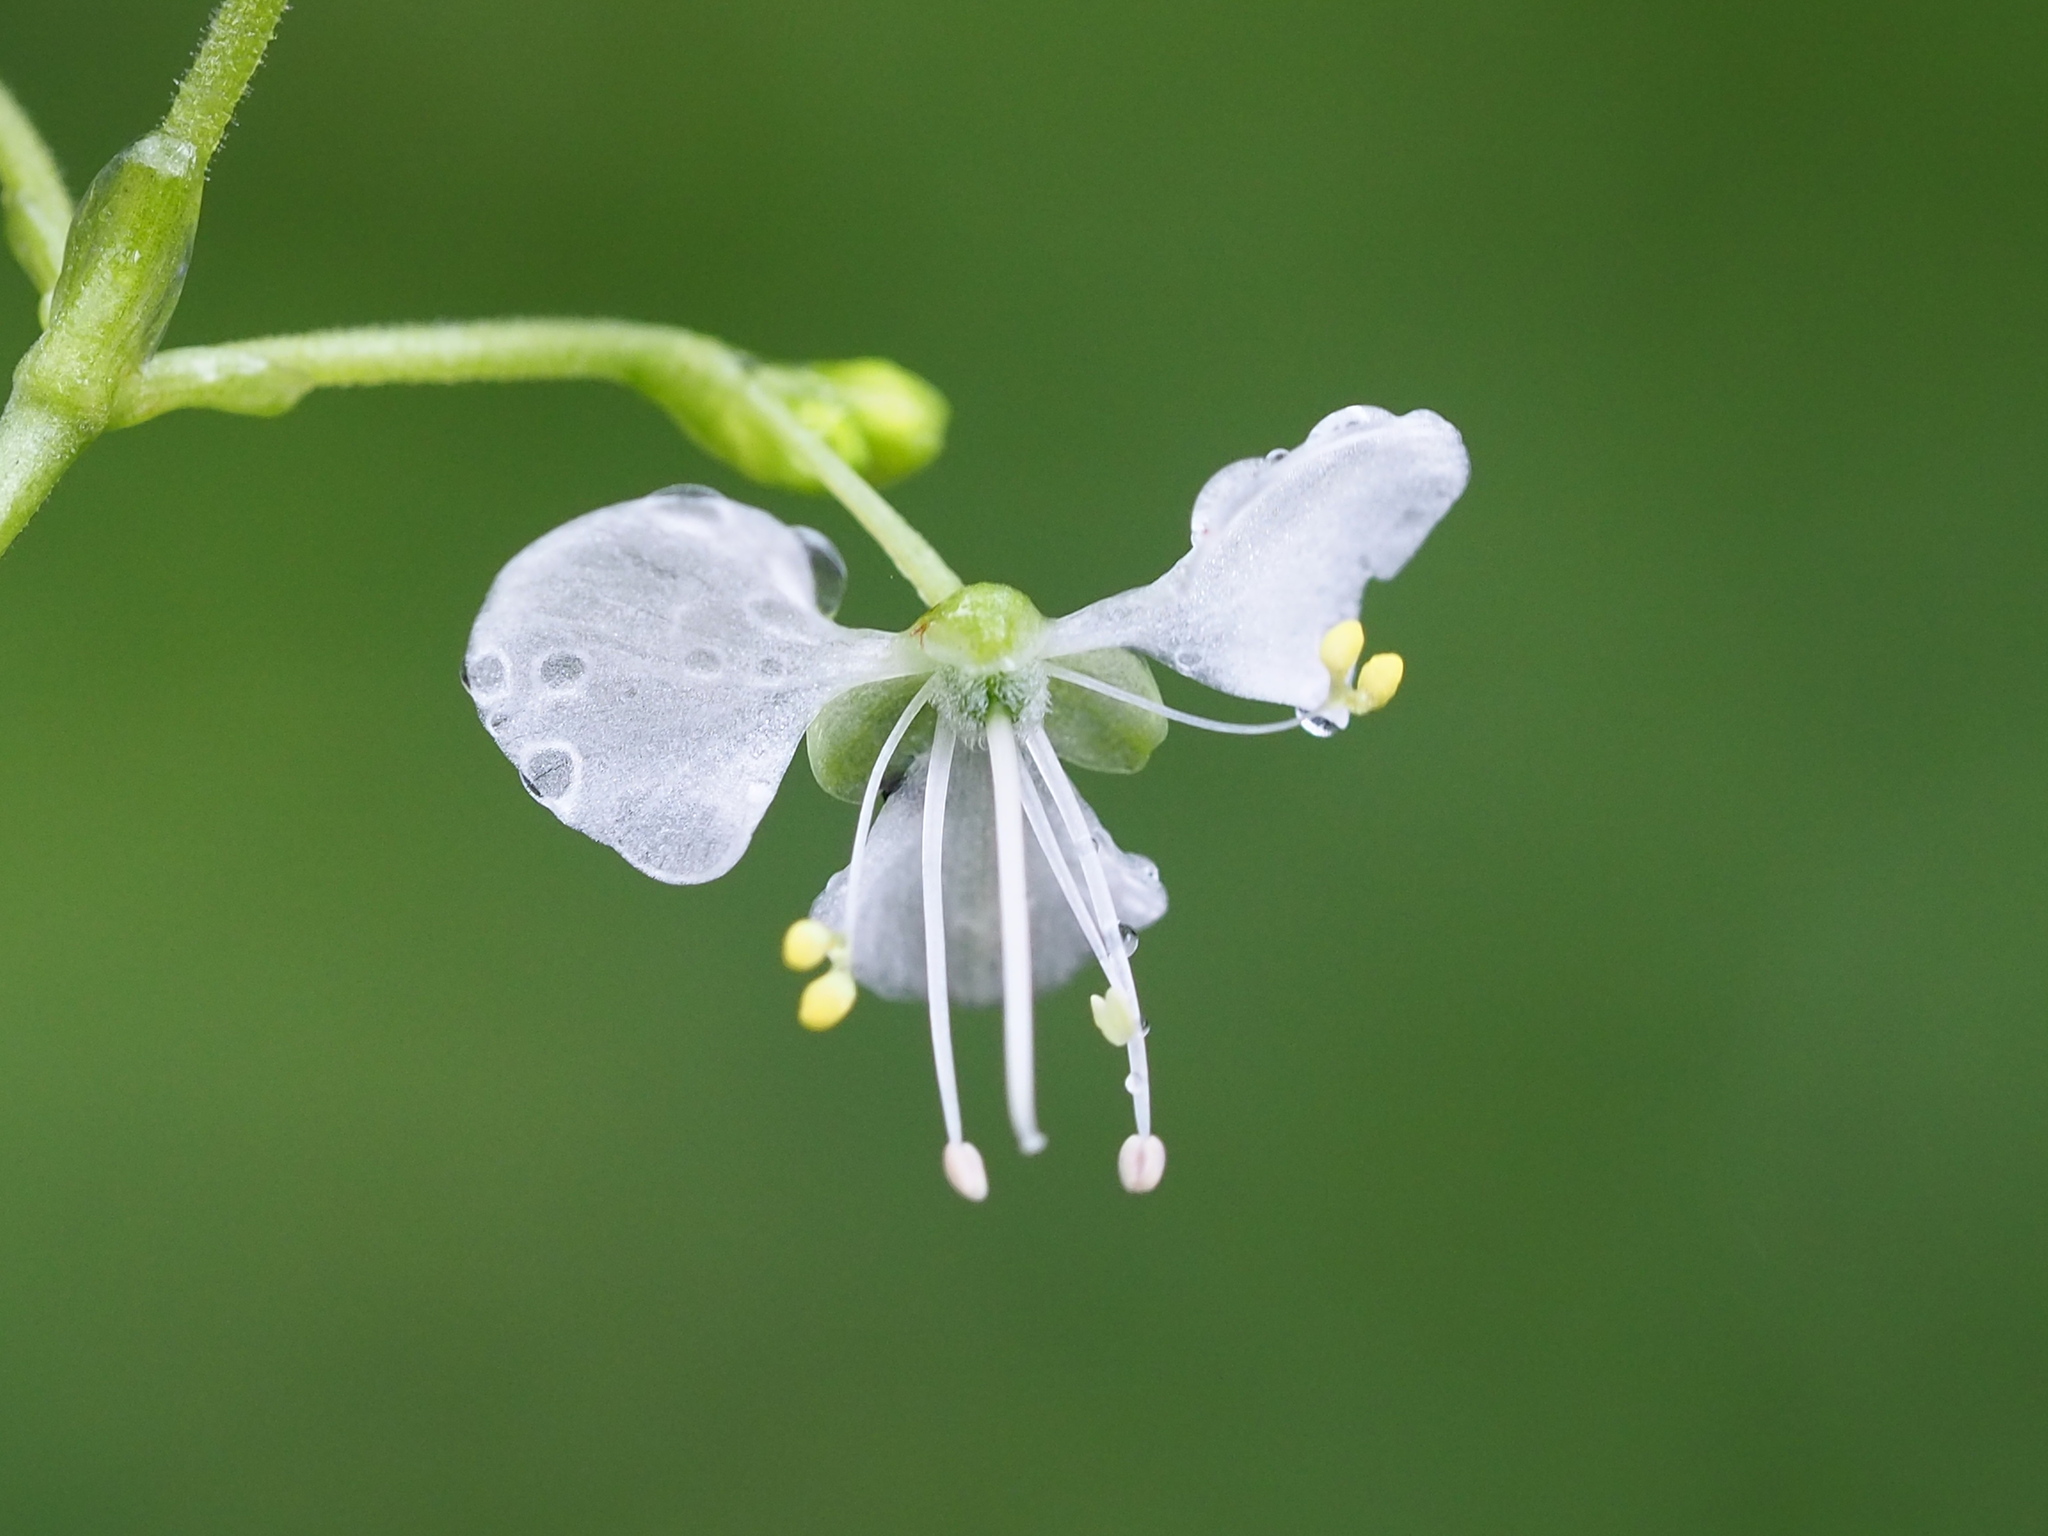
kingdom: Plantae
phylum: Tracheophyta
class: Liliopsida
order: Commelinales
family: Commelinaceae
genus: Rhopalephora
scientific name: Rhopalephora scaberrima
